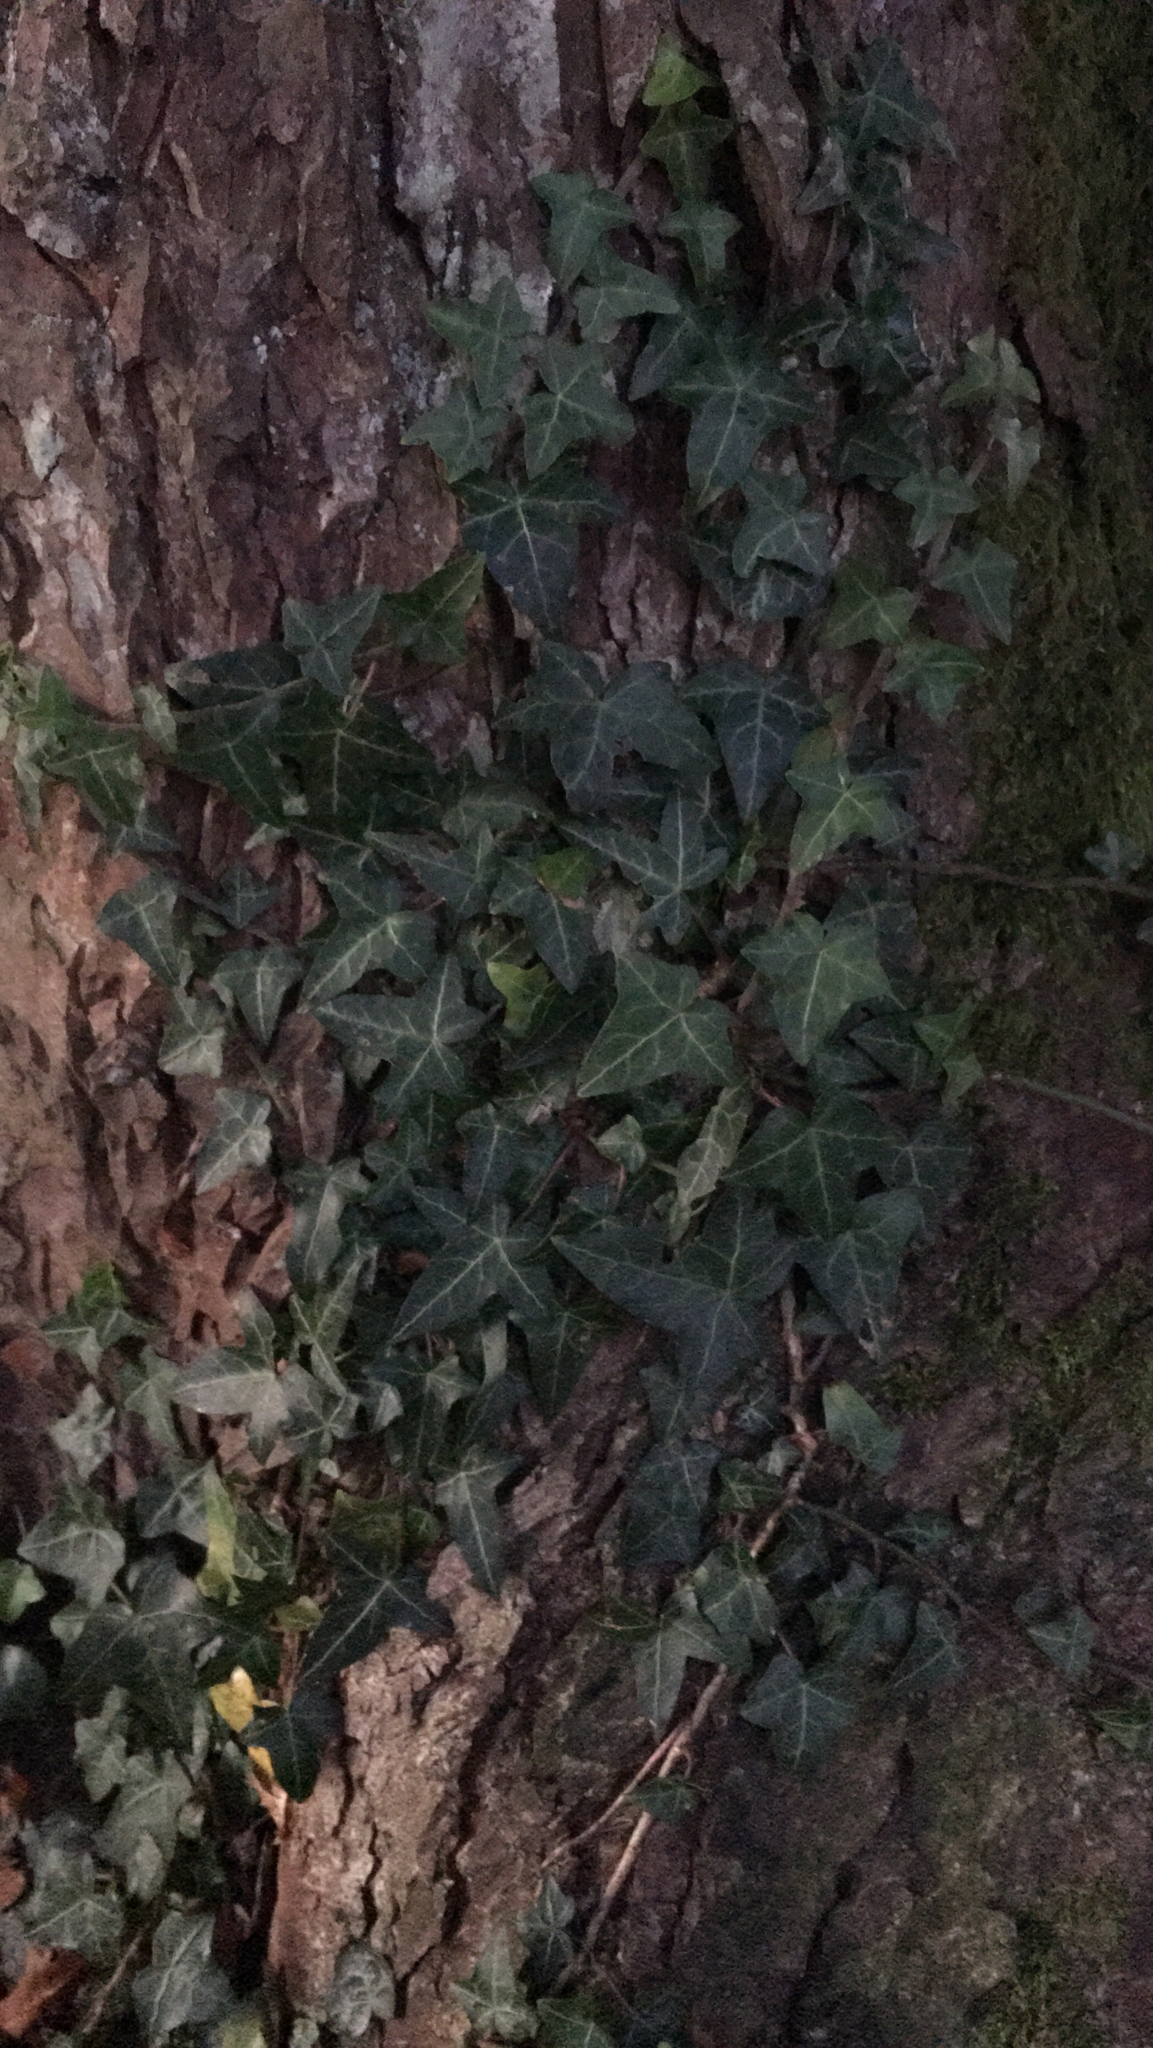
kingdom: Plantae
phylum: Tracheophyta
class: Magnoliopsida
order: Apiales
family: Araliaceae
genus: Hedera
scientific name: Hedera helix
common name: Ivy
